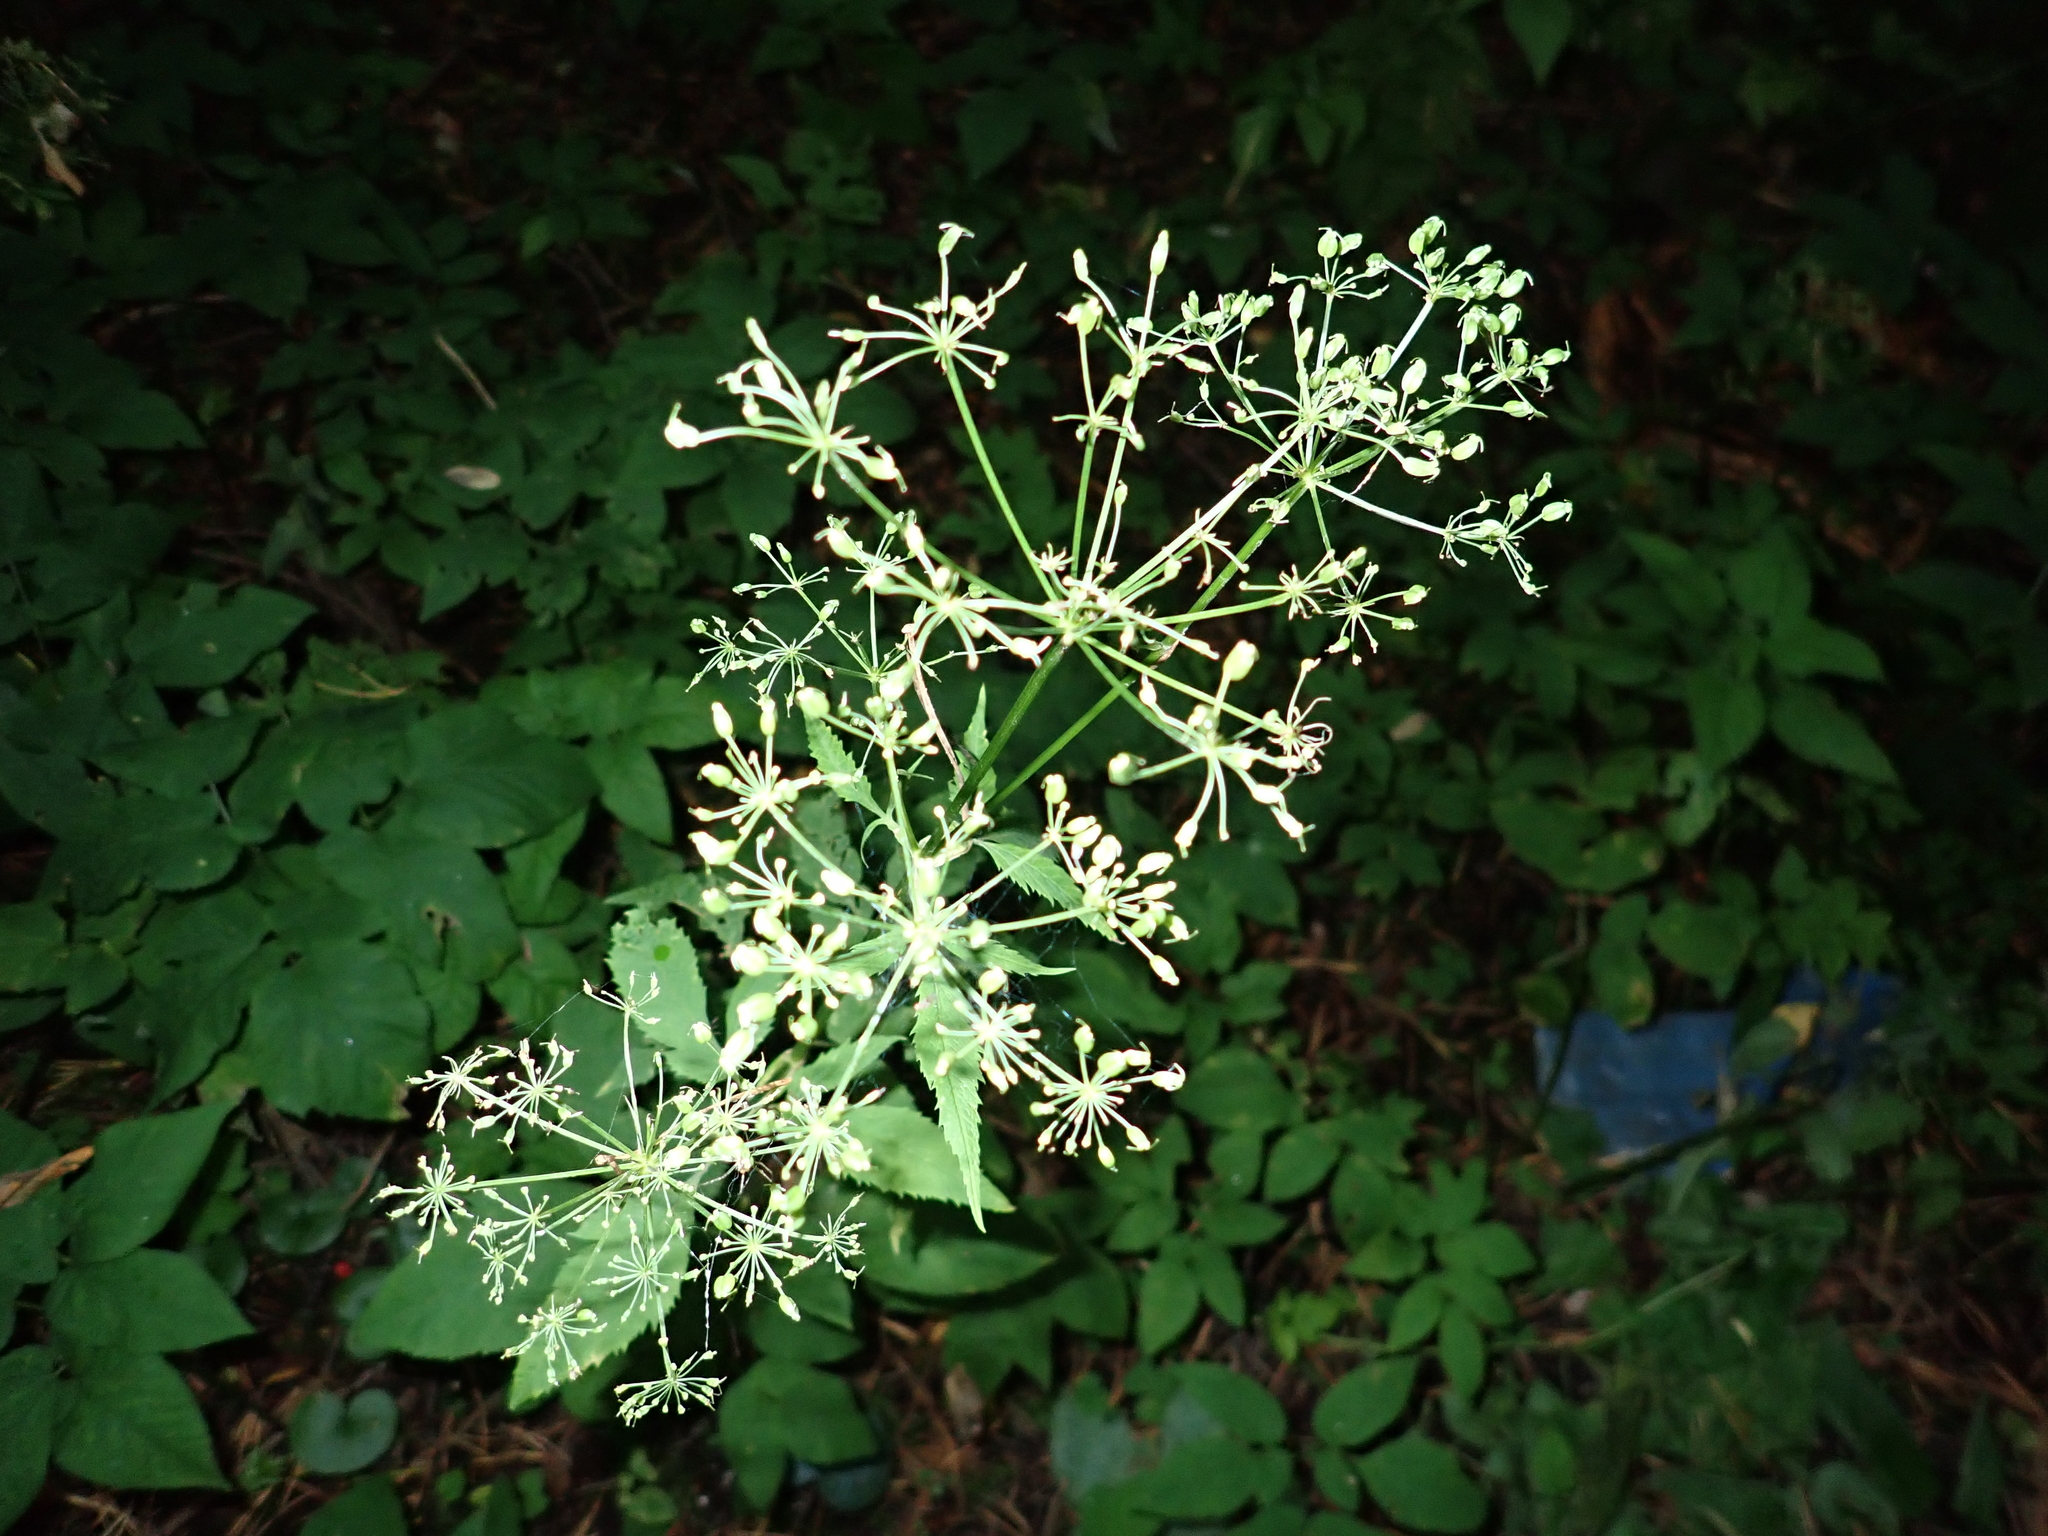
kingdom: Plantae
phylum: Tracheophyta
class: Magnoliopsida
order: Apiales
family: Apiaceae
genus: Aegopodium
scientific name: Aegopodium podagraria
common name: Ground-elder
